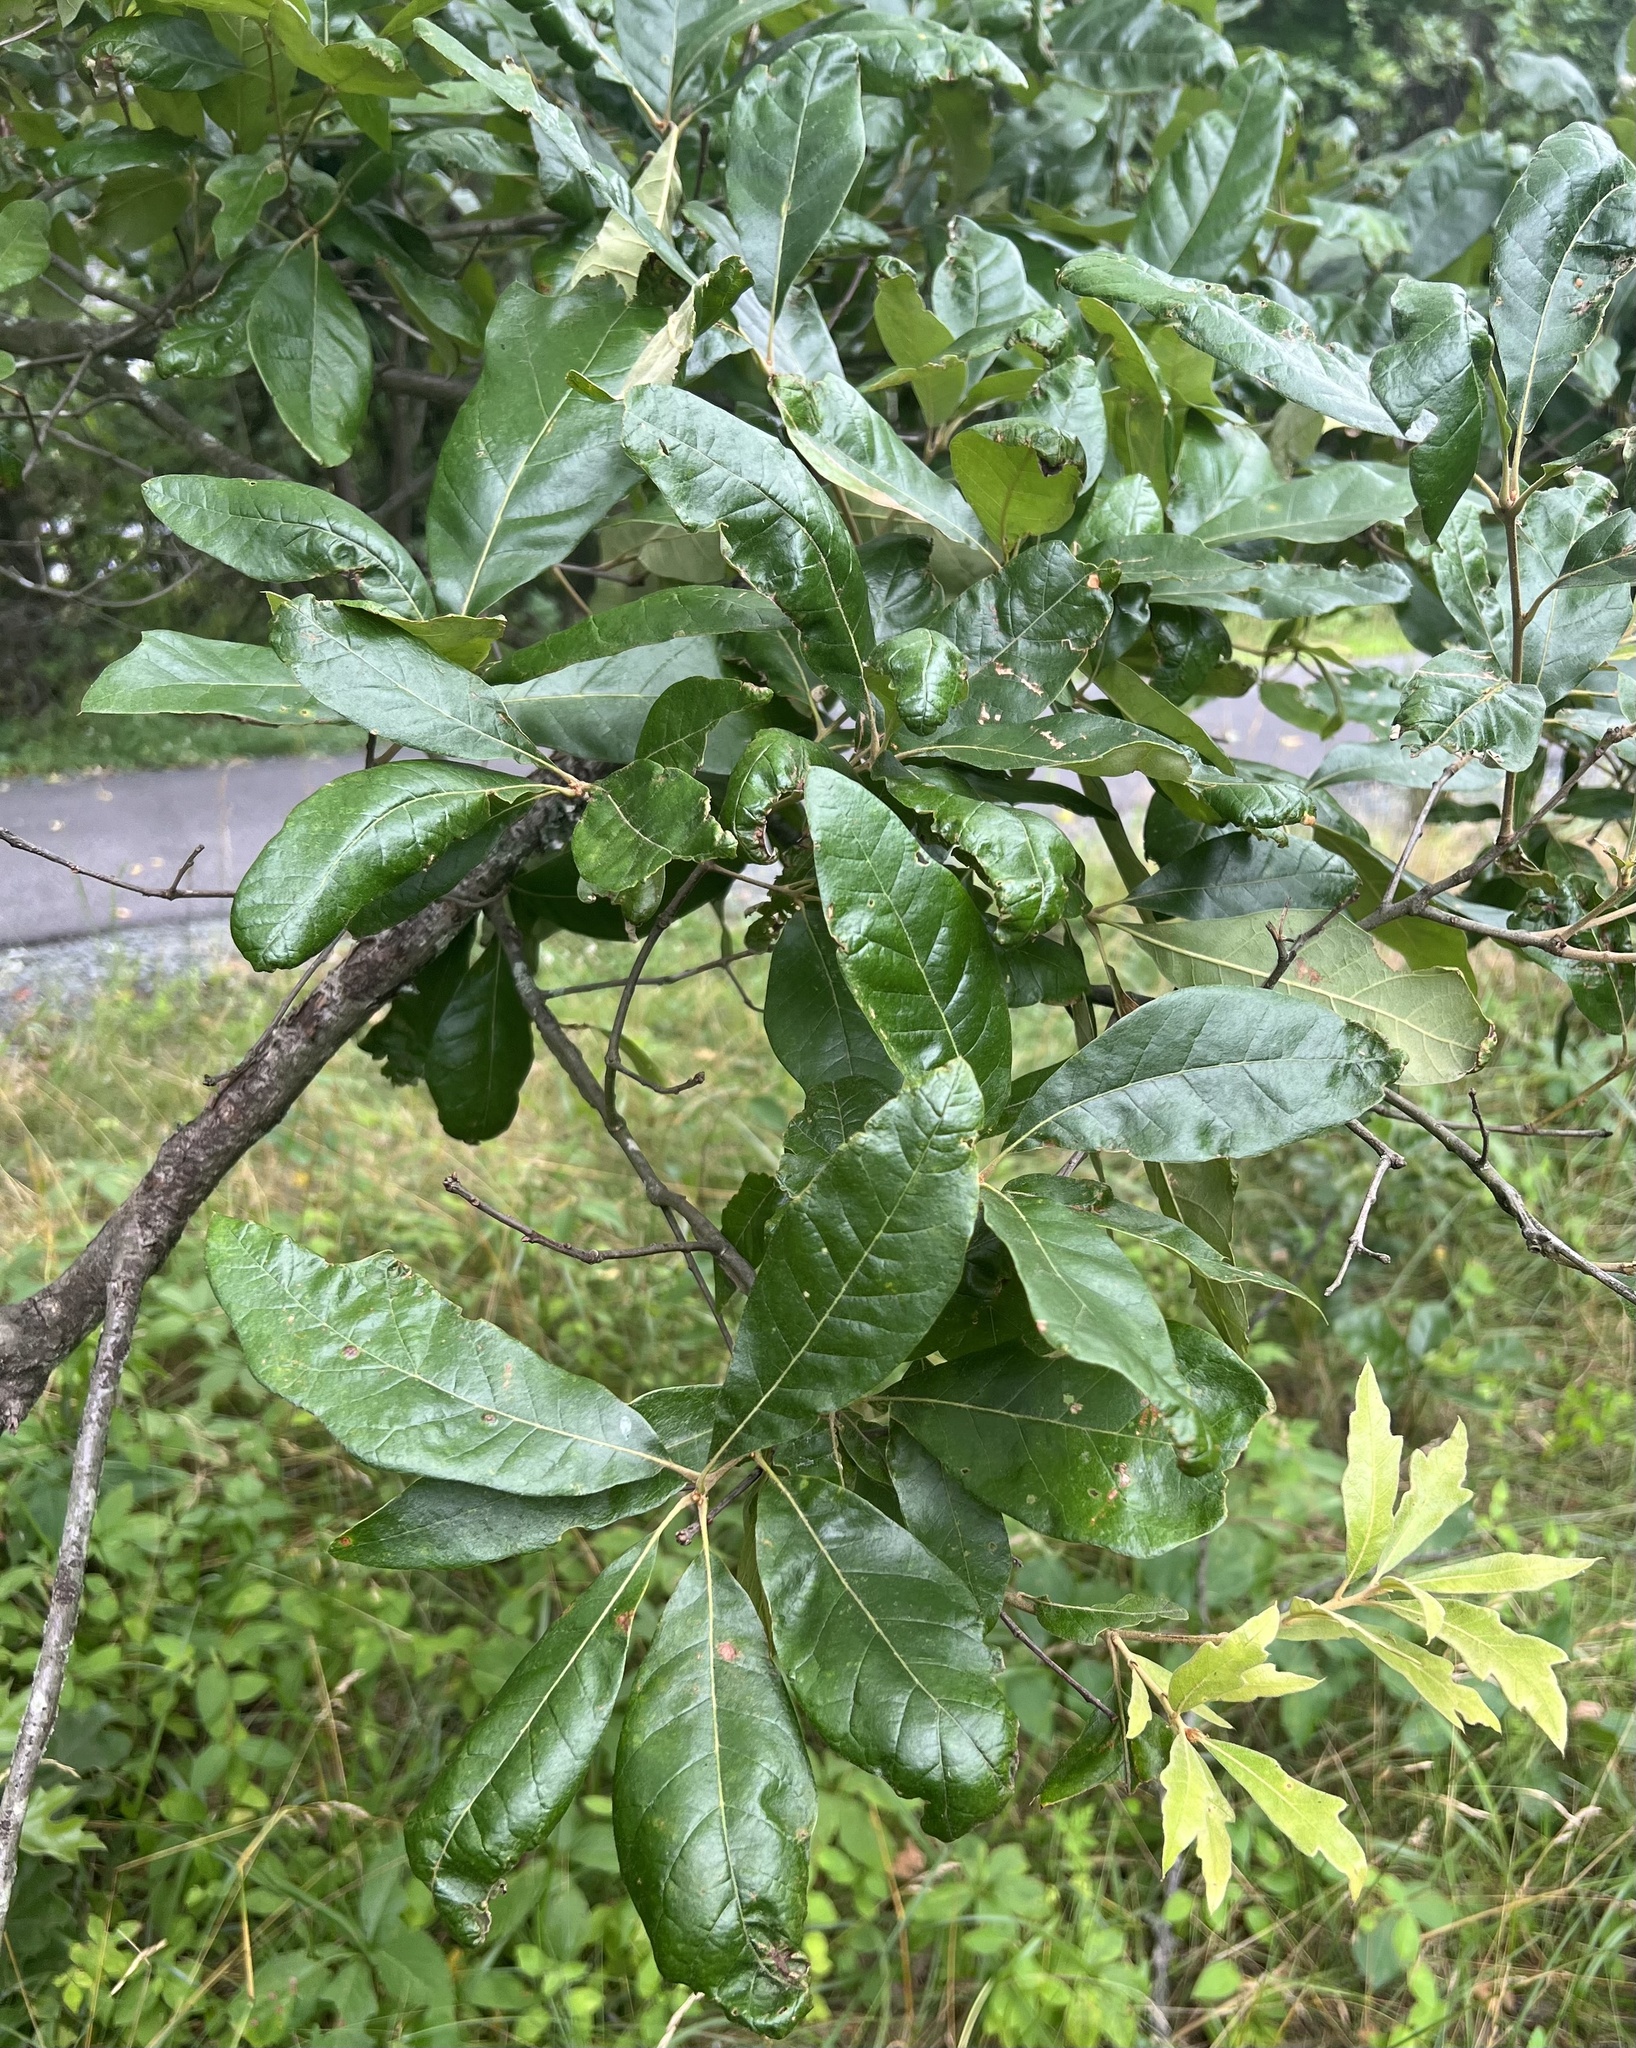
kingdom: Plantae
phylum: Tracheophyta
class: Magnoliopsida
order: Fagales
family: Fagaceae
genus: Quercus
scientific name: Quercus falcata
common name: Southern red oak
